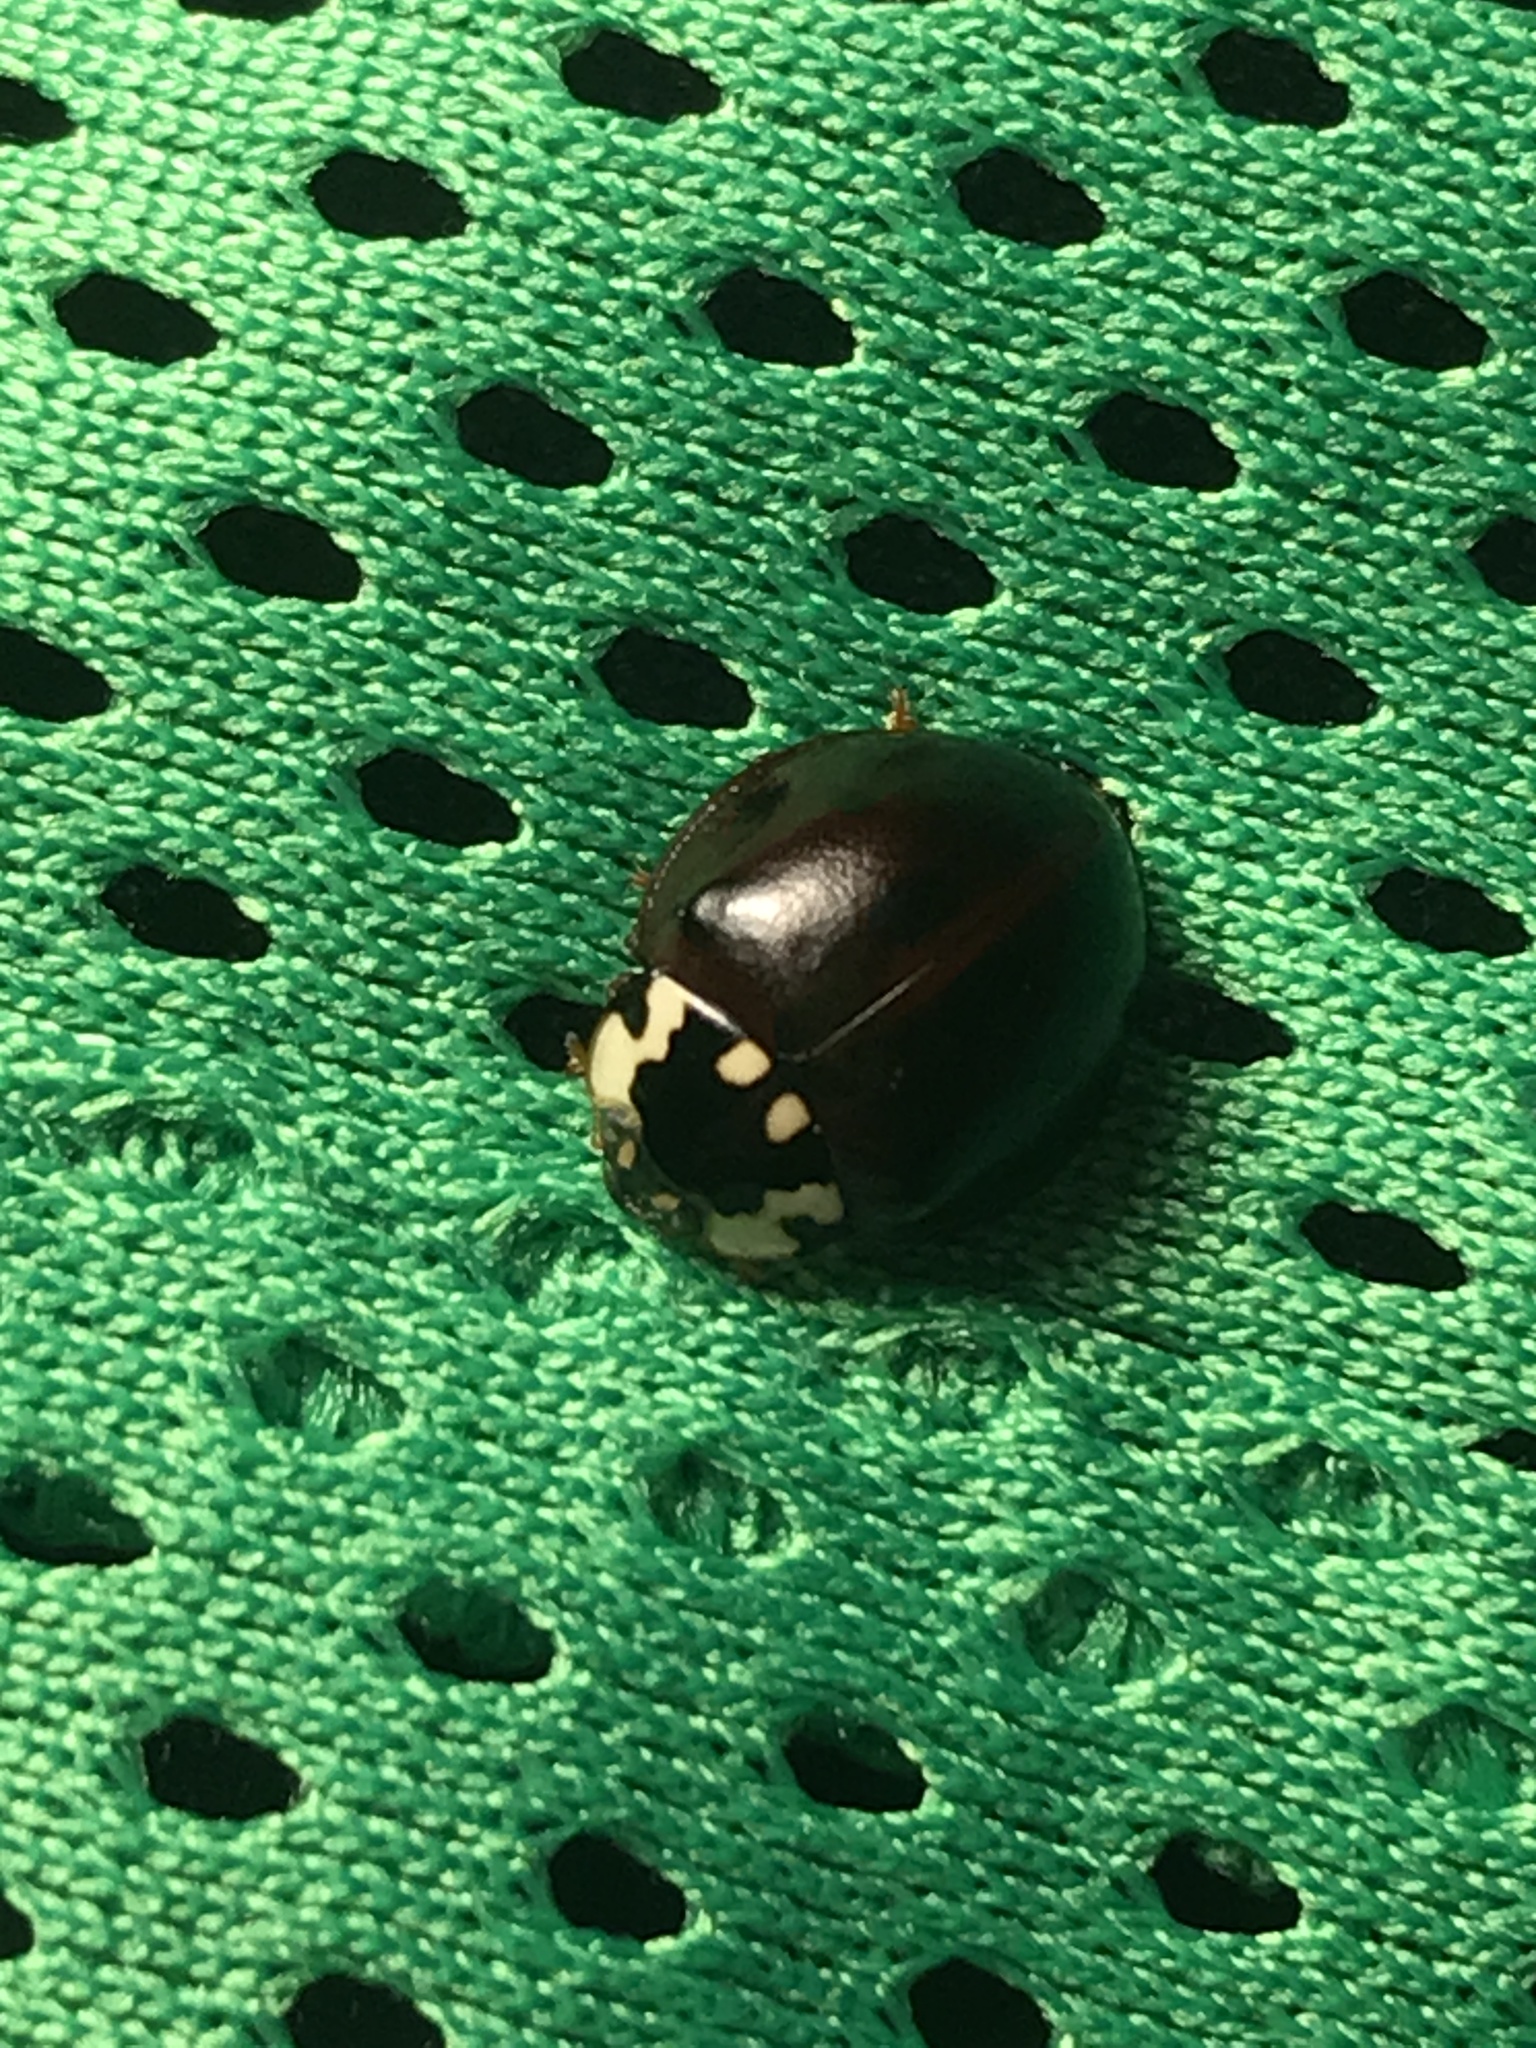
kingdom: Animalia
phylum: Arthropoda
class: Insecta
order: Coleoptera
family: Coccinellidae
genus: Anatis
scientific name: Anatis labiculata
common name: Fifteen-spotted lady beetle
